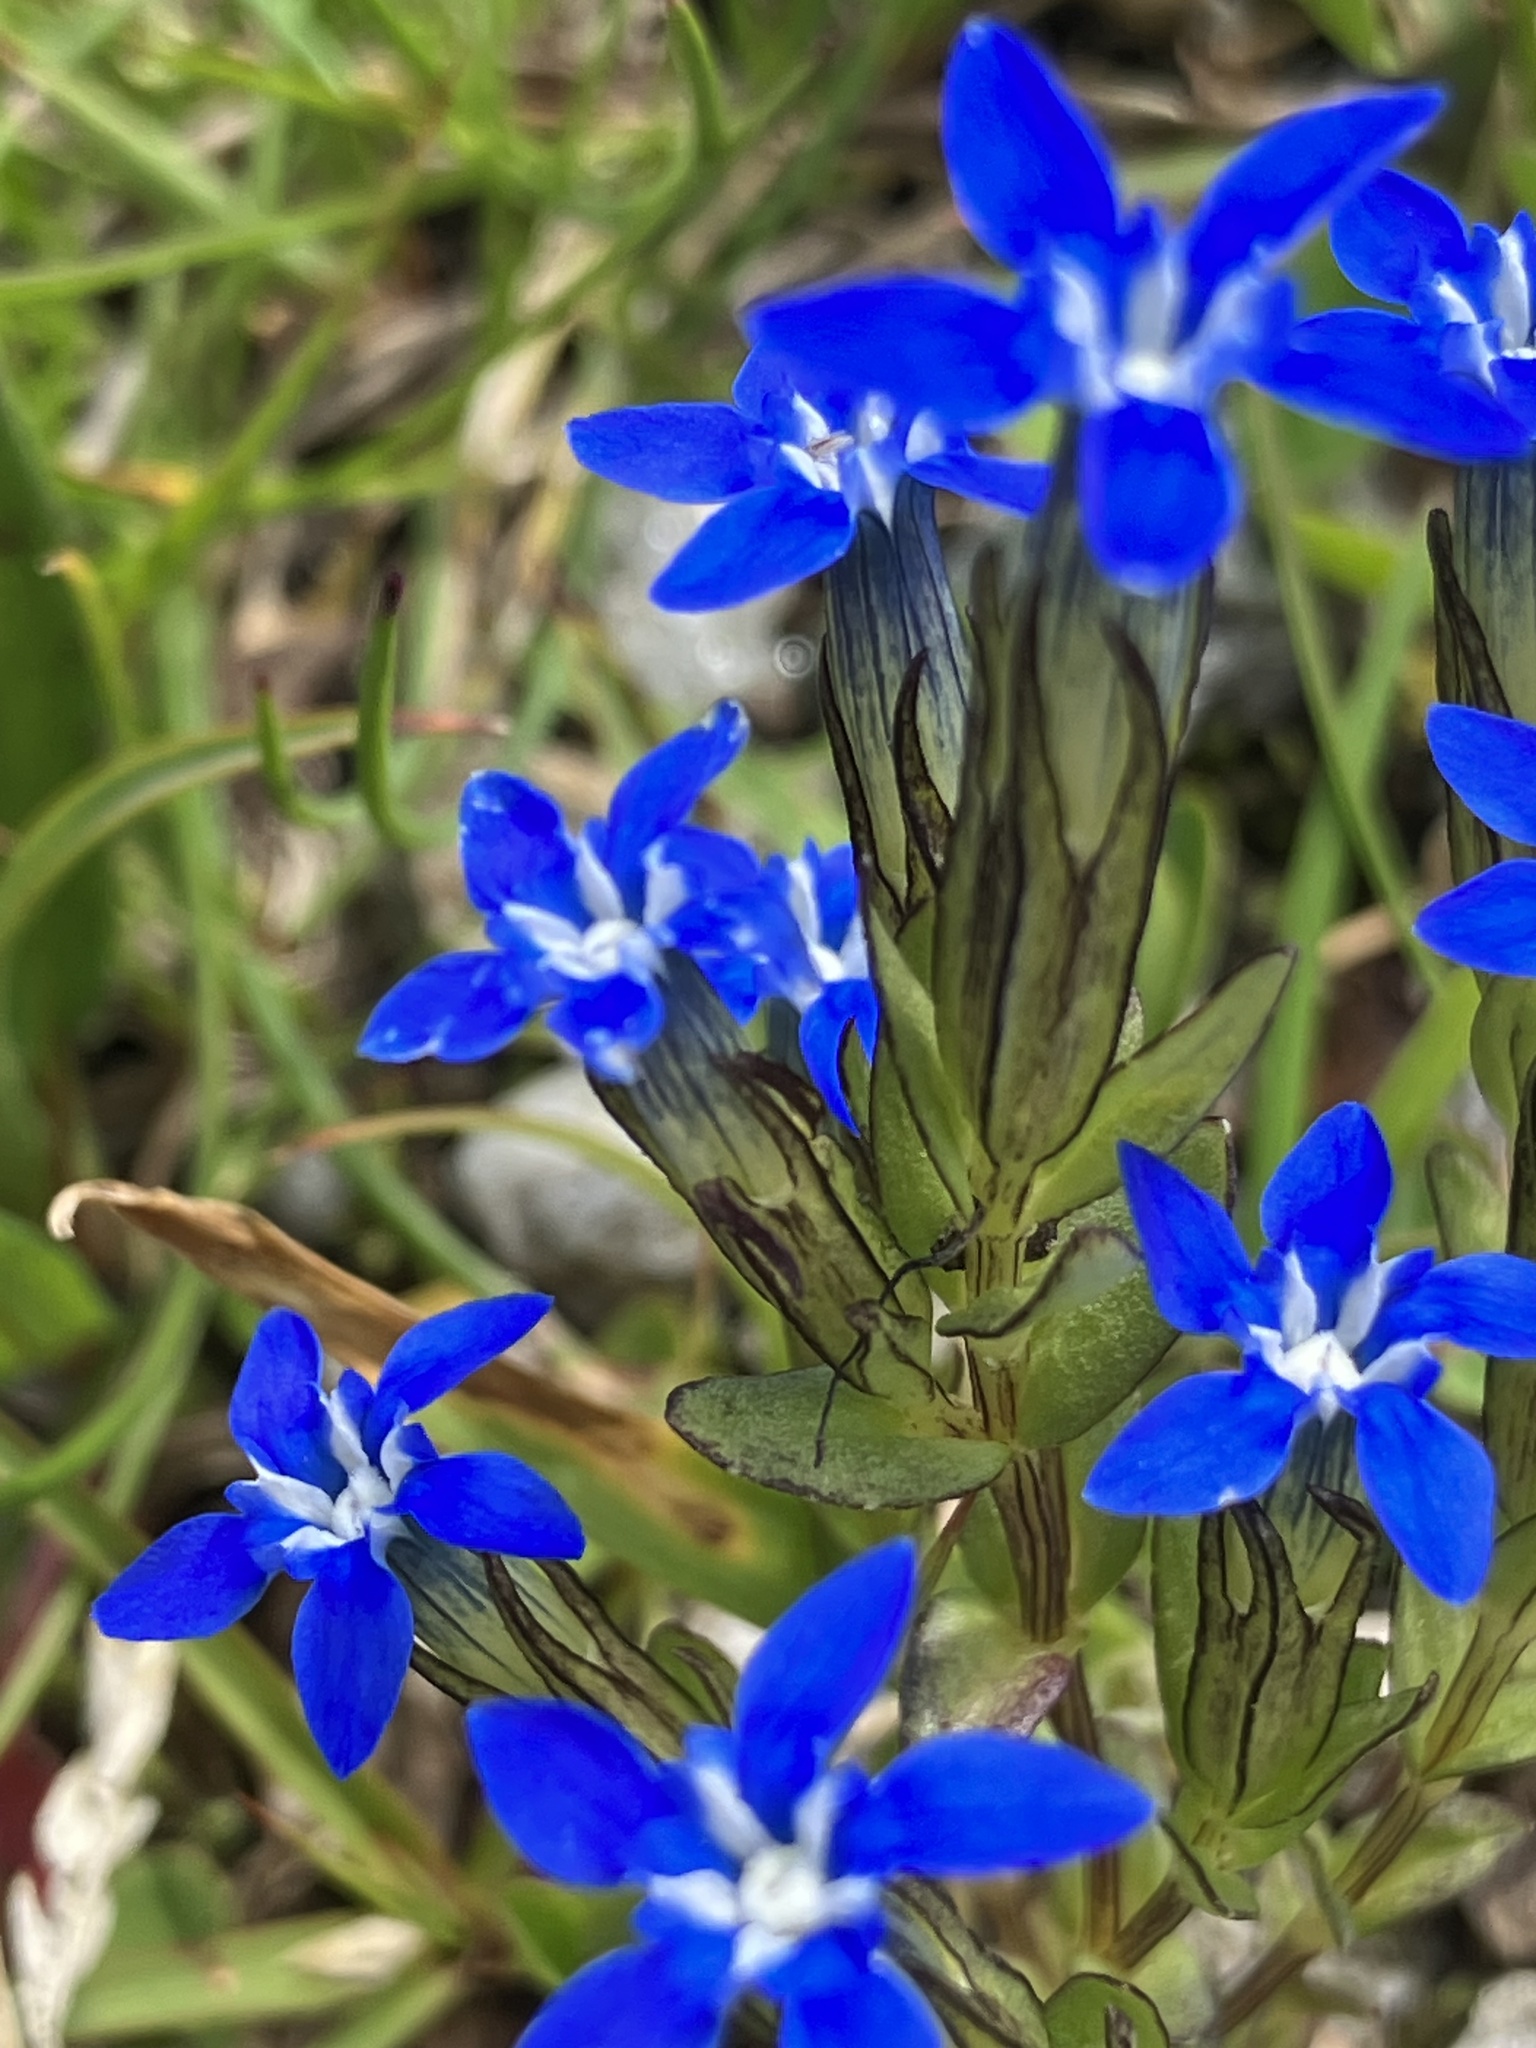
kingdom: Plantae
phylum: Tracheophyta
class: Magnoliopsida
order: Gentianales
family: Gentianaceae
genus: Gentiana
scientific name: Gentiana nivalis
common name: Alpine gentian
